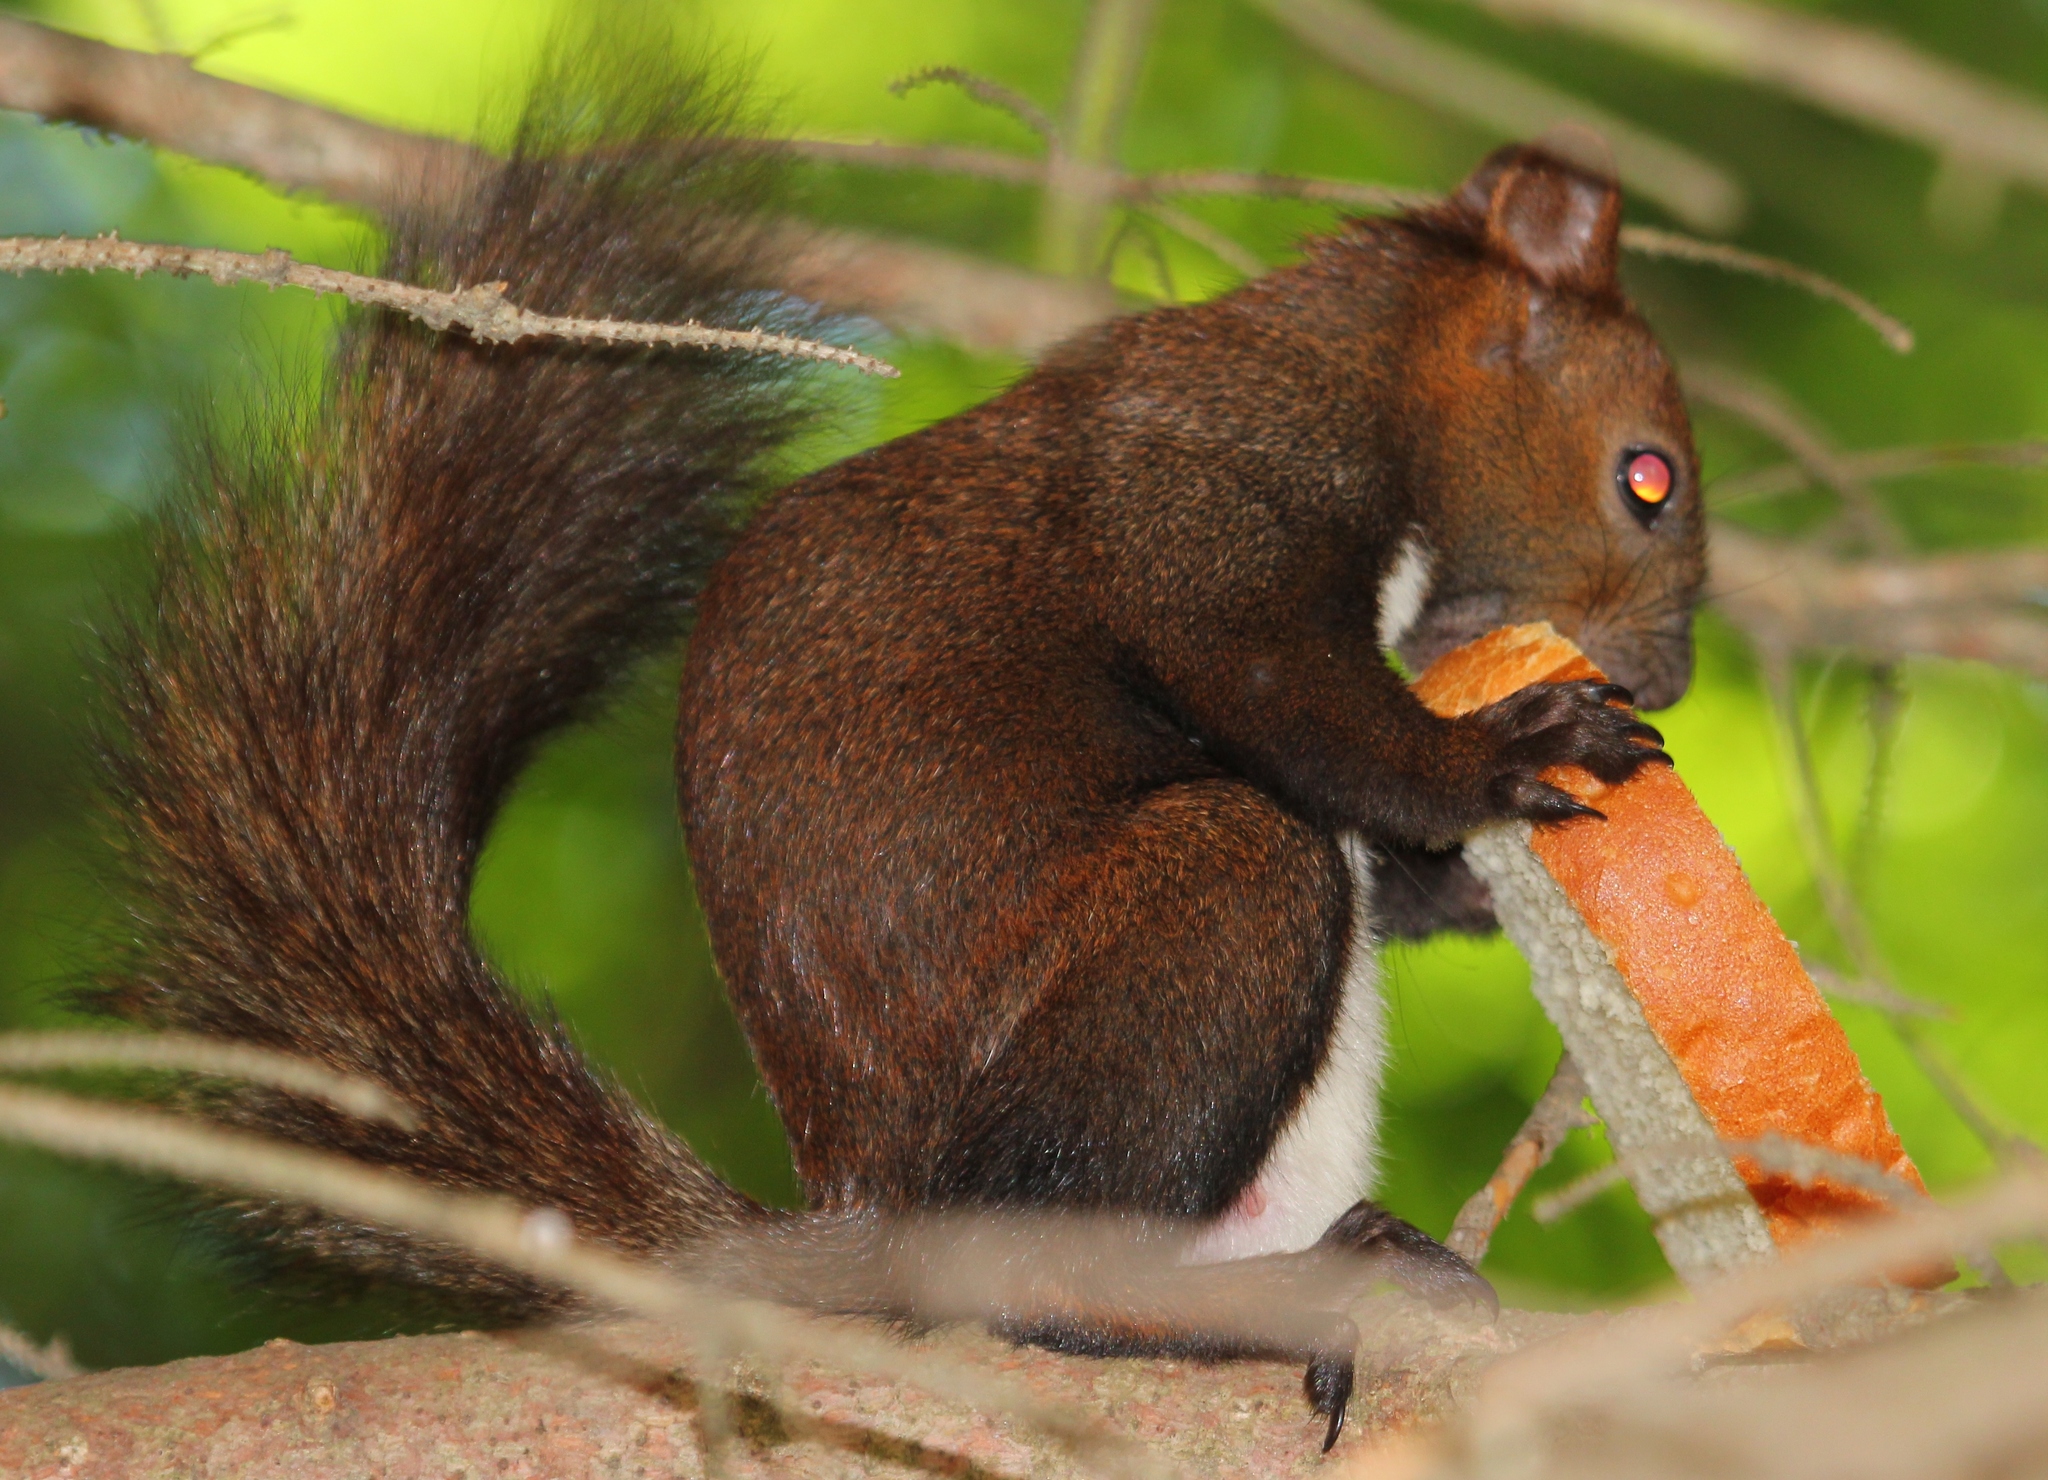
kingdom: Animalia
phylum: Chordata
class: Mammalia
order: Rodentia
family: Sciuridae
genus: Sciurus
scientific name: Sciurus vulgaris
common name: Eurasian red squirrel
